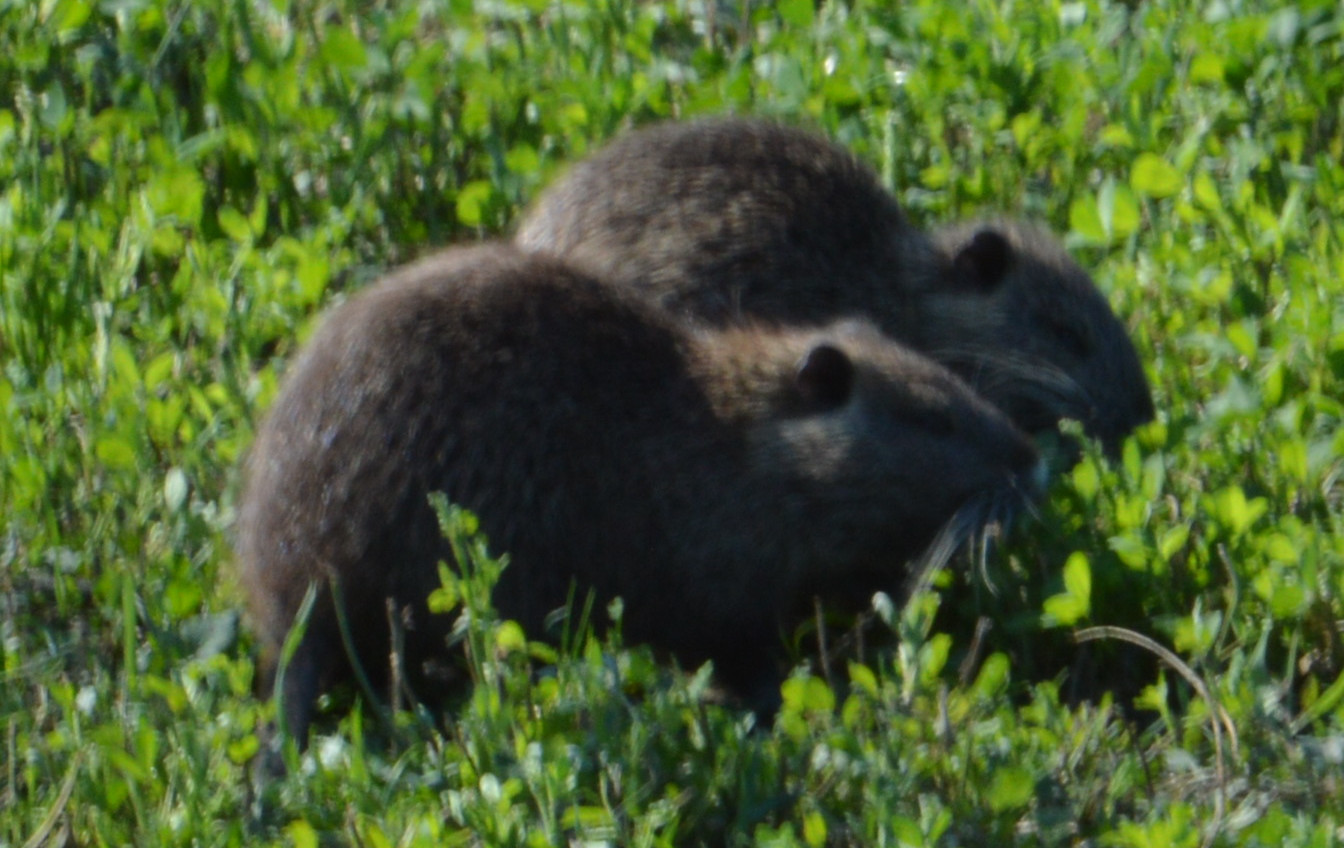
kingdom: Animalia
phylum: Chordata
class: Mammalia
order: Rodentia
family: Myocastoridae
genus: Myocastor
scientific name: Myocastor coypus
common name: Coypu
